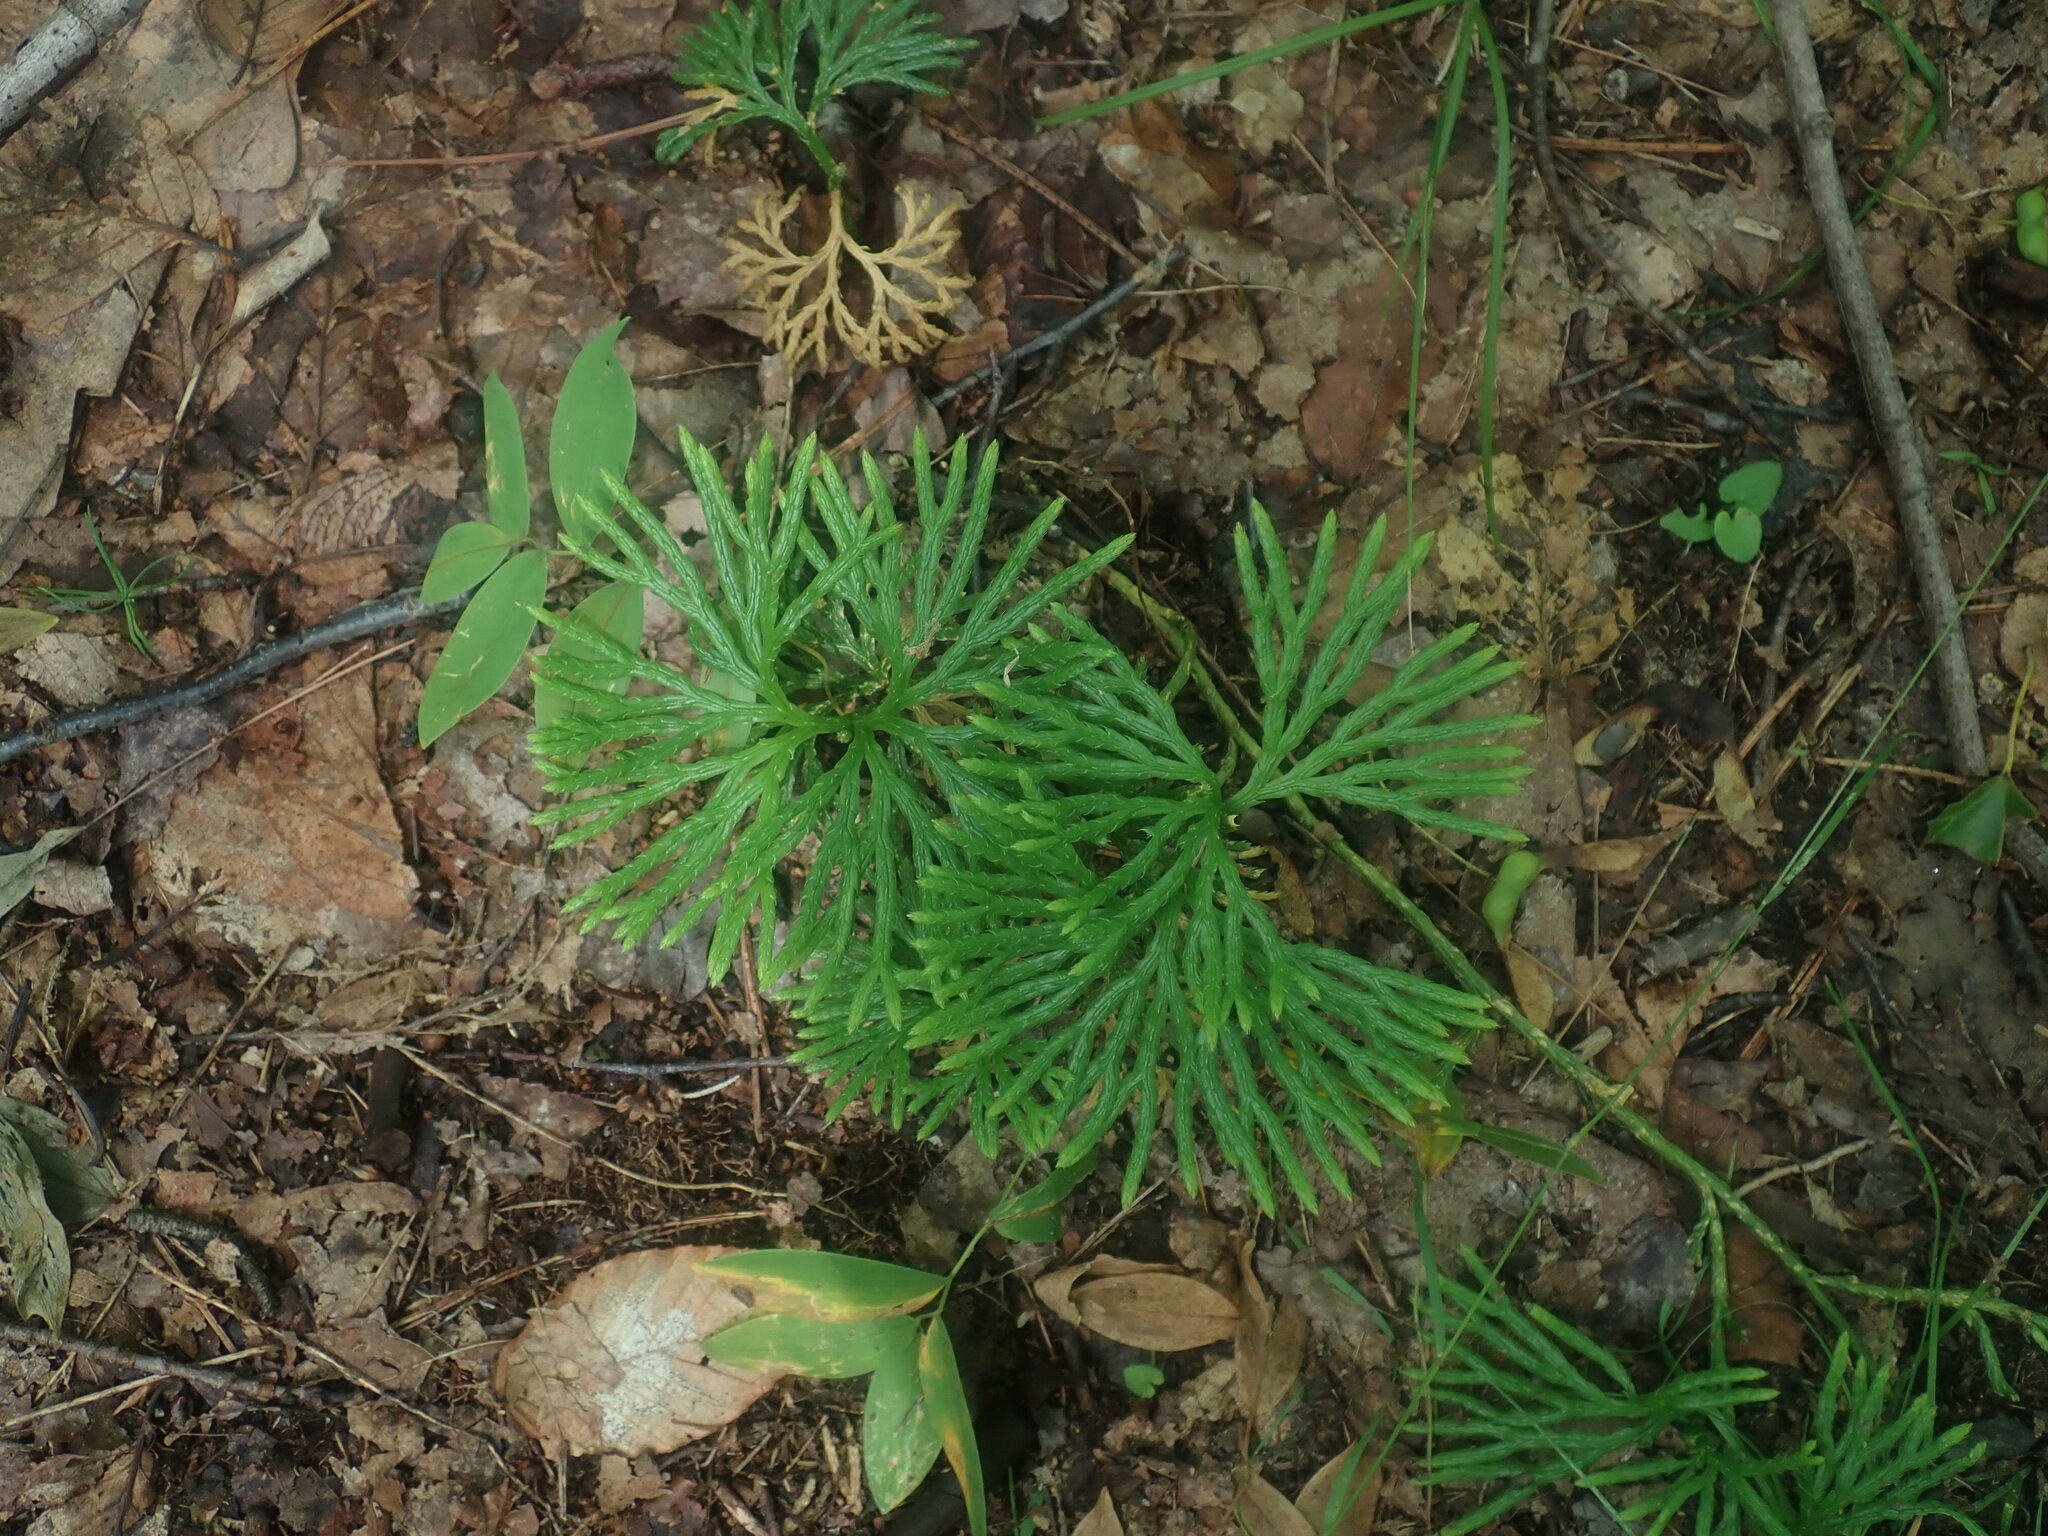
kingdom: Plantae
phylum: Tracheophyta
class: Lycopodiopsida
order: Lycopodiales
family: Lycopodiaceae
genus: Diphasiastrum
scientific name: Diphasiastrum digitatum
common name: Southern running-pine
